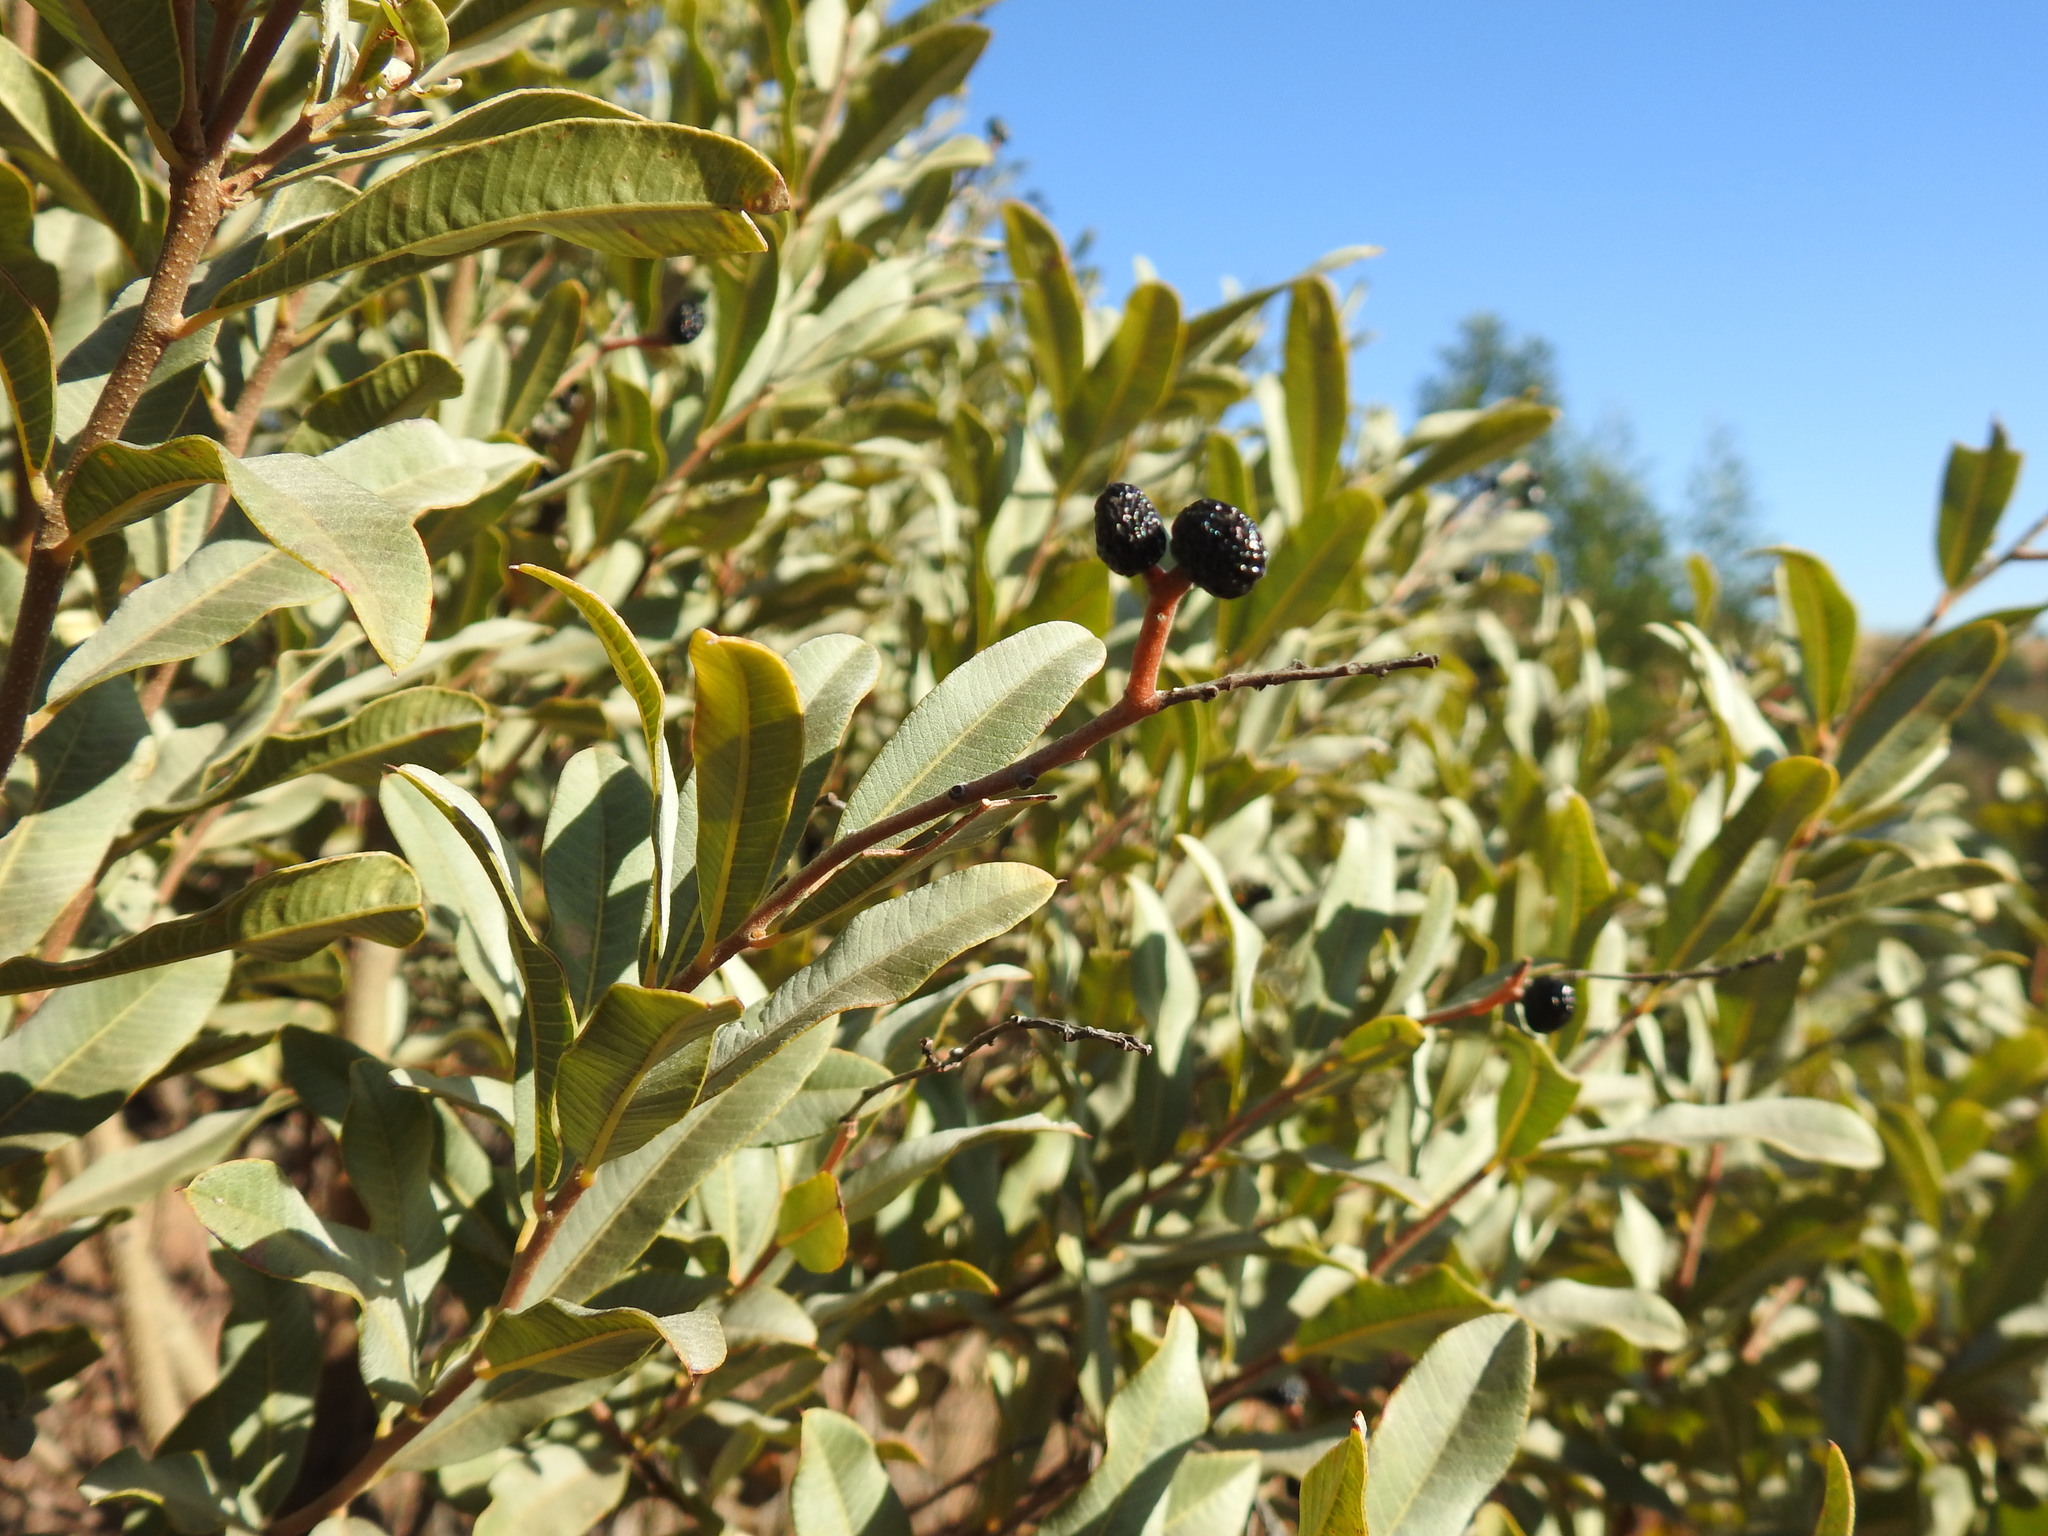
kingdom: Plantae
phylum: Tracheophyta
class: Magnoliopsida
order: Sapindales
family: Anacardiaceae
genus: Ozoroa
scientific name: Ozoroa paniculosa
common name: Bushveld ozoroa
